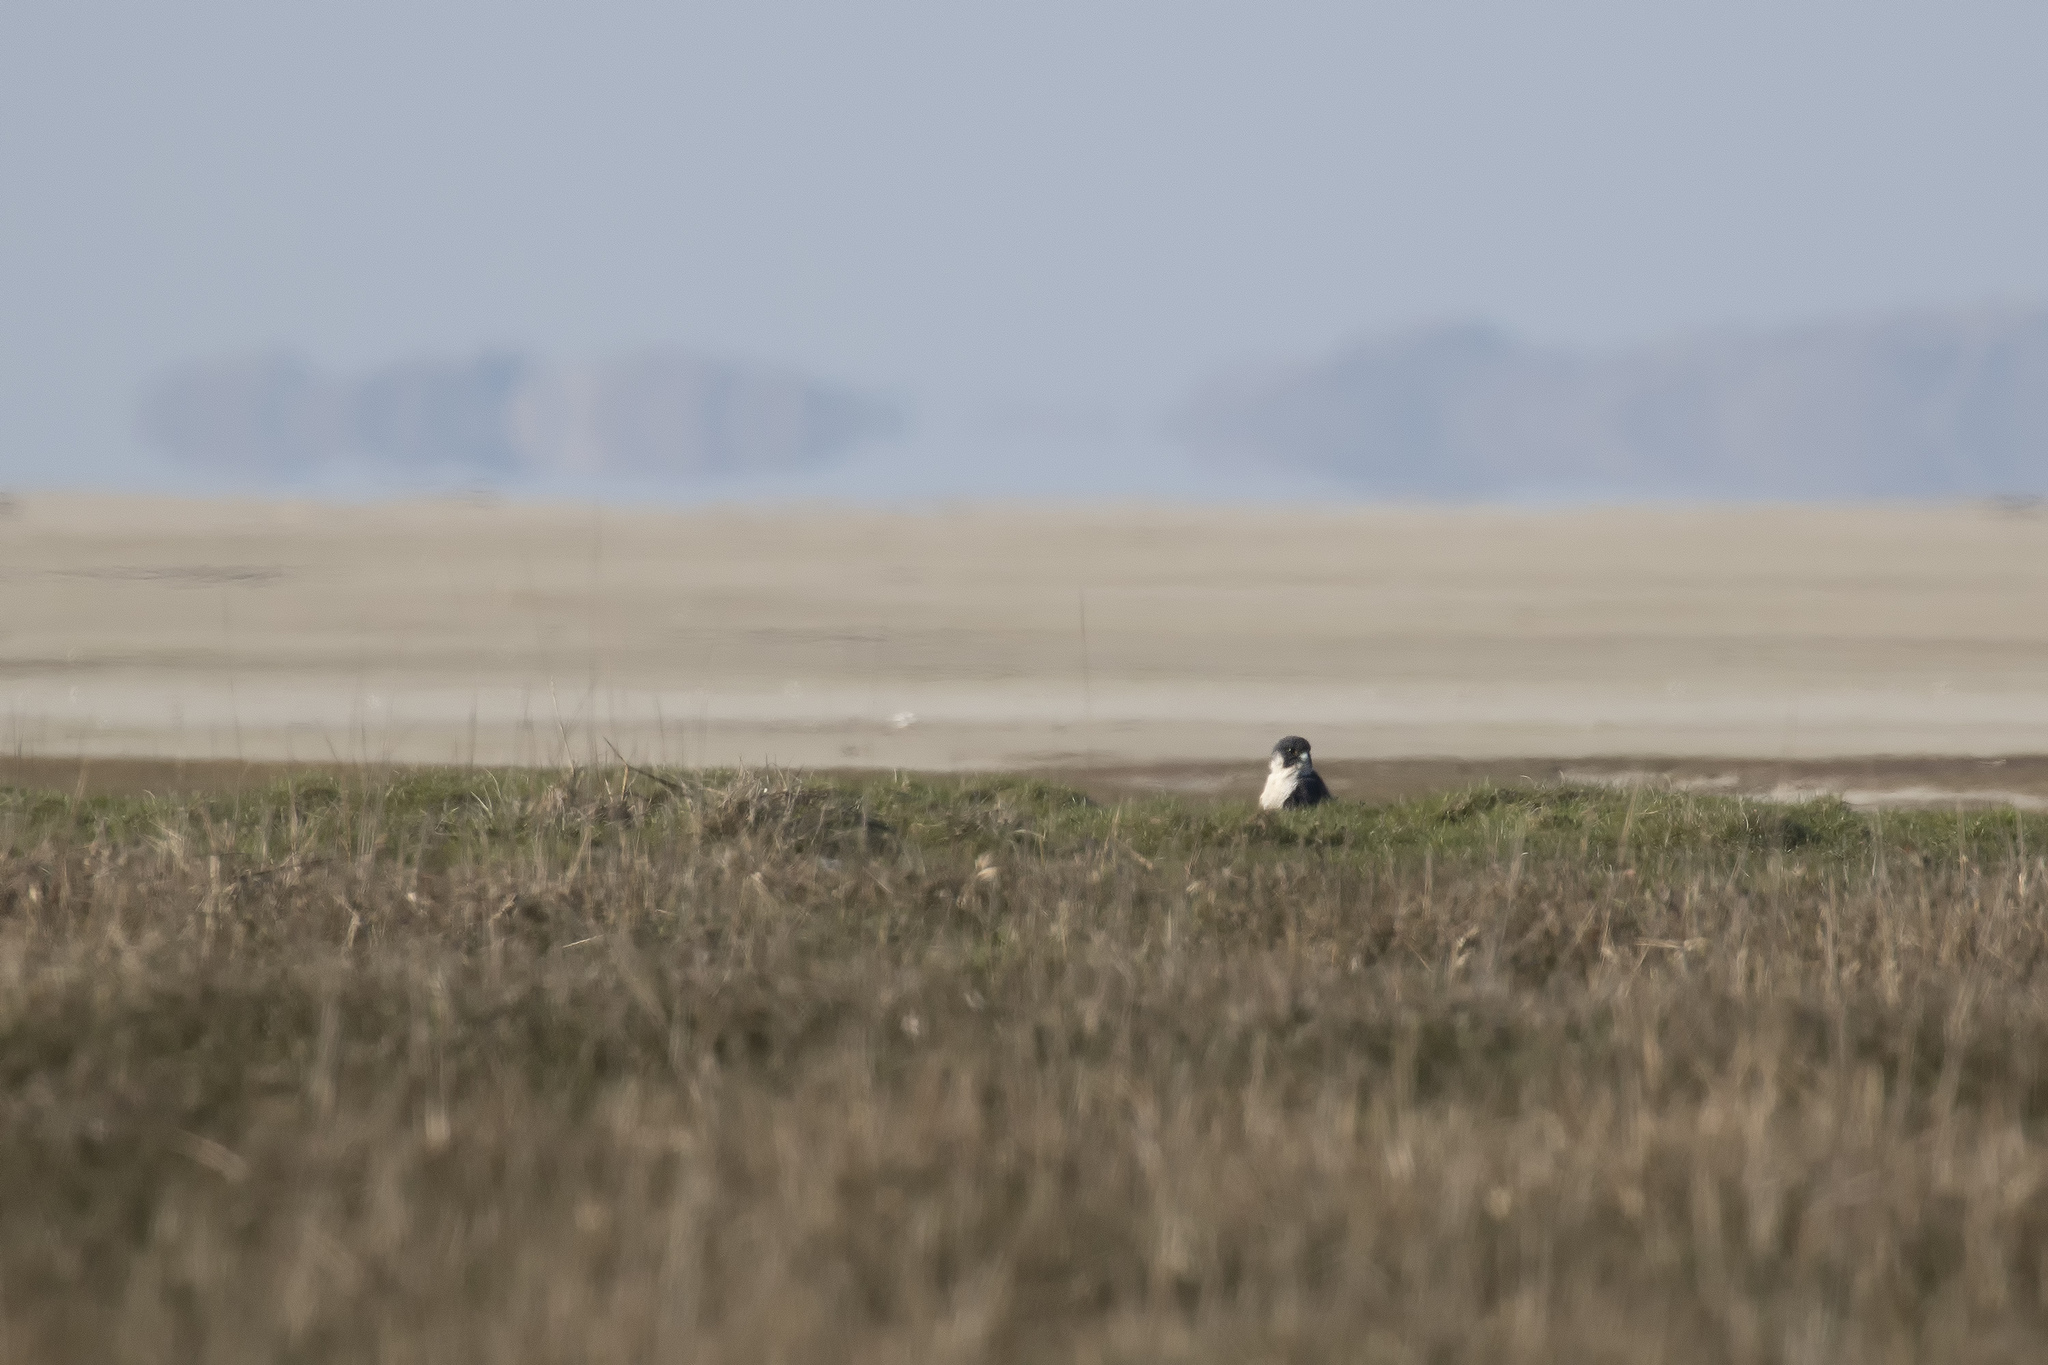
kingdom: Animalia
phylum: Chordata
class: Aves
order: Falconiformes
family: Falconidae
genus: Falco
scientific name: Falco peregrinus
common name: Peregrine falcon
